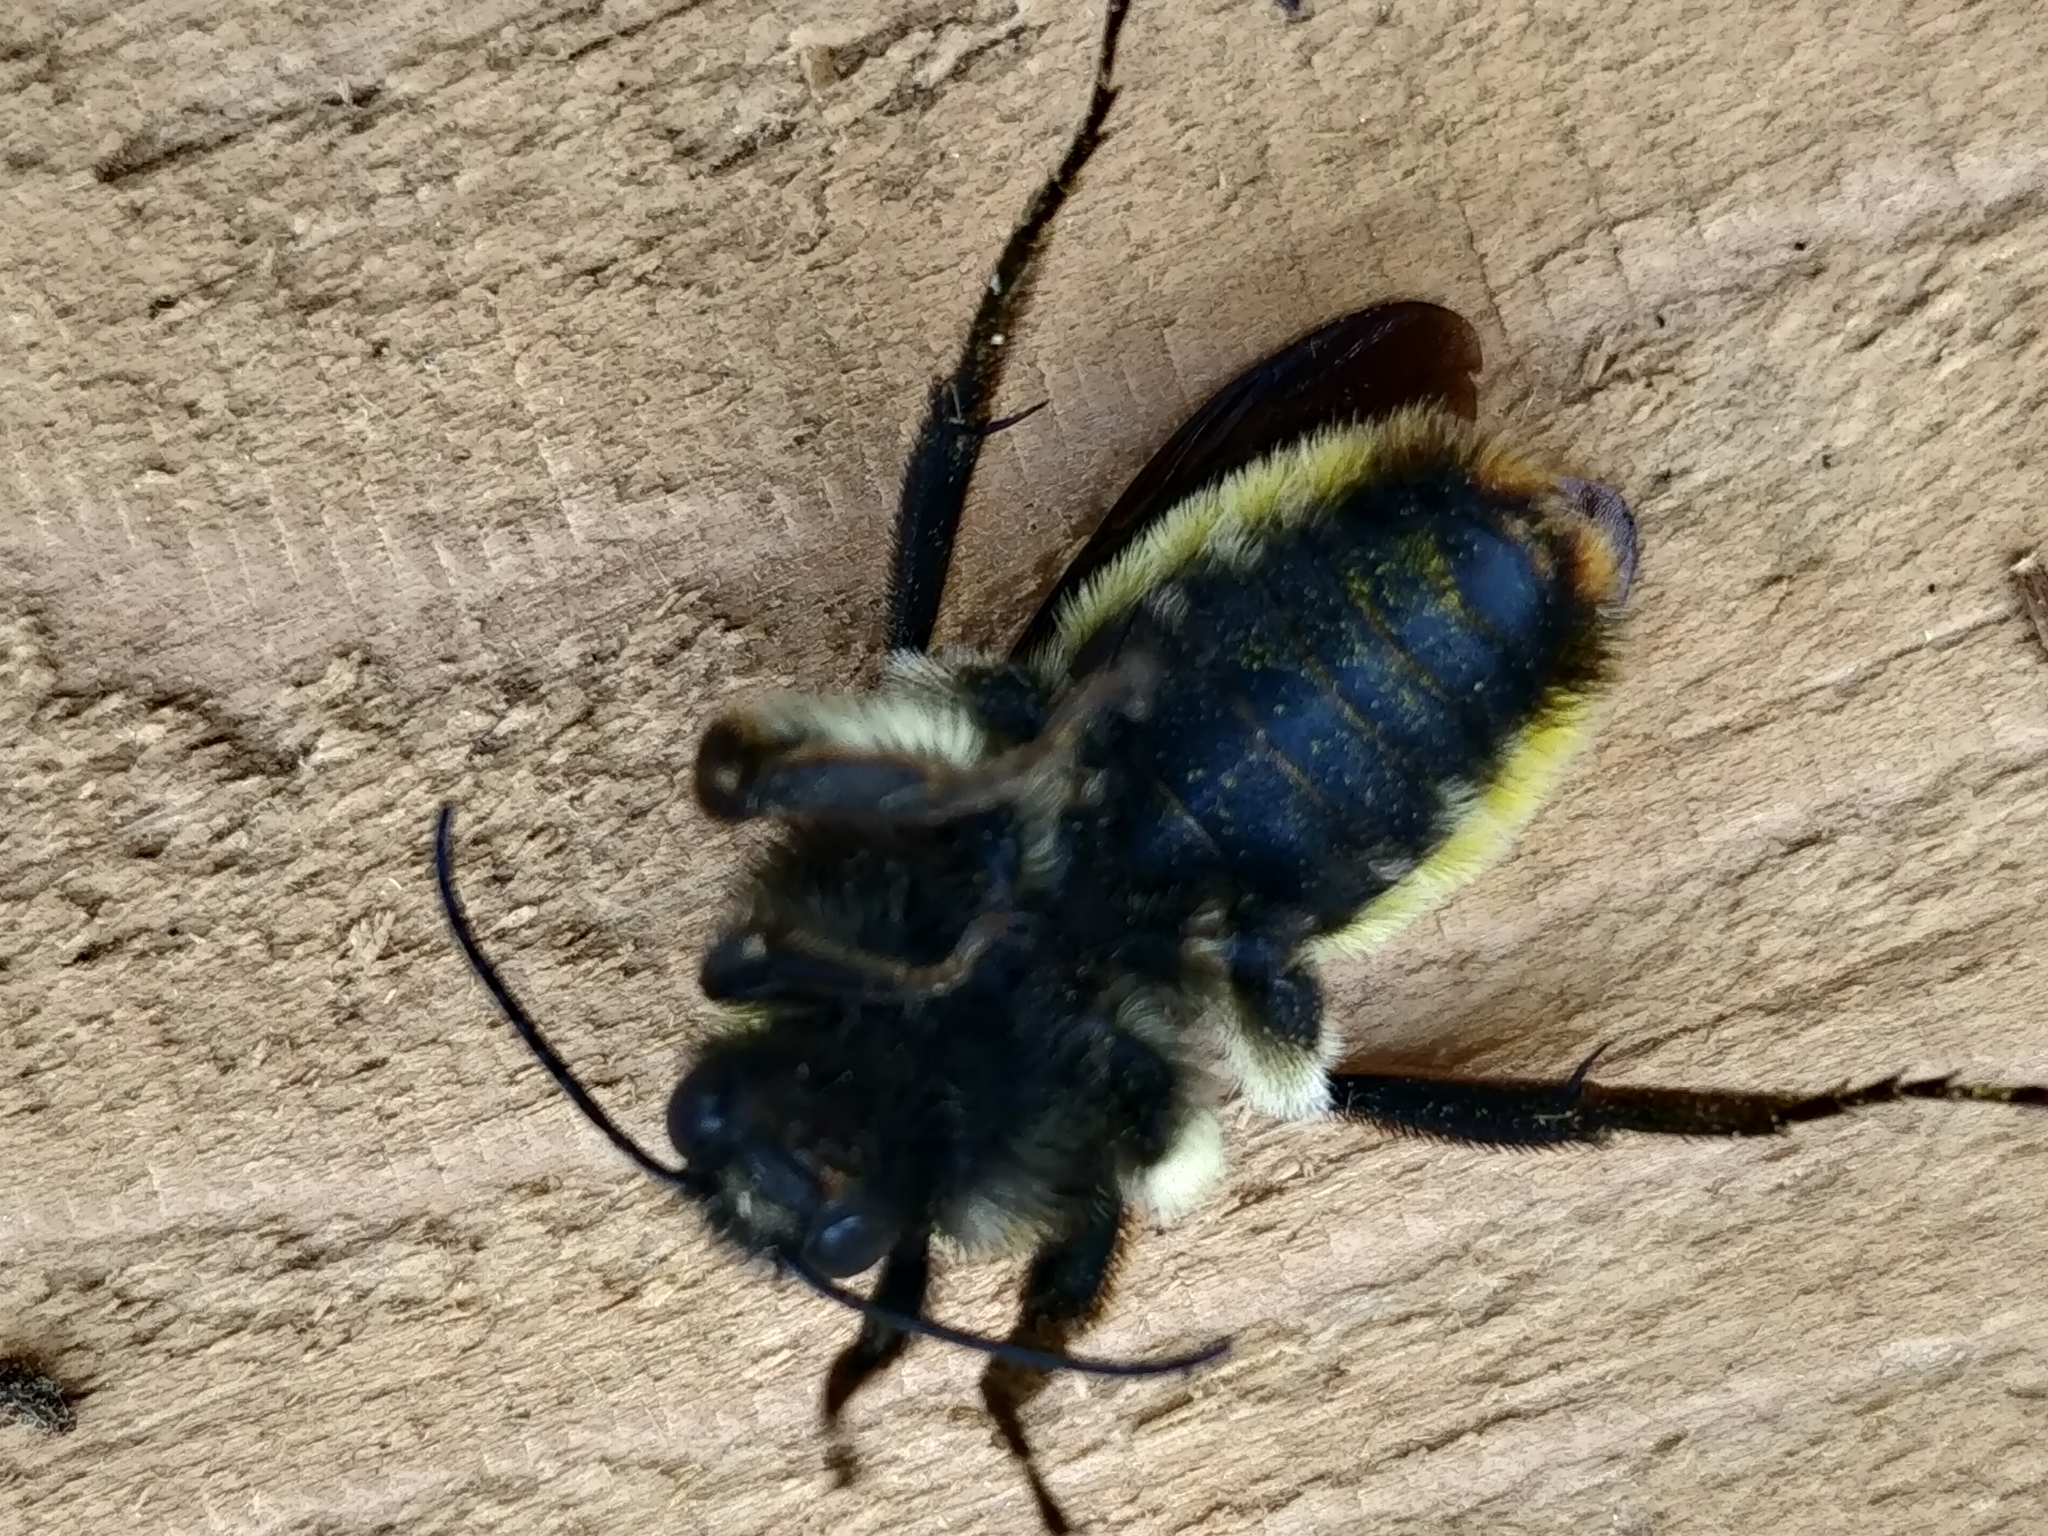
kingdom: Animalia
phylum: Arthropoda
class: Insecta
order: Hymenoptera
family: Apidae
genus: Bombus
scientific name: Bombus pensylvanicus
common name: Bumble bee
